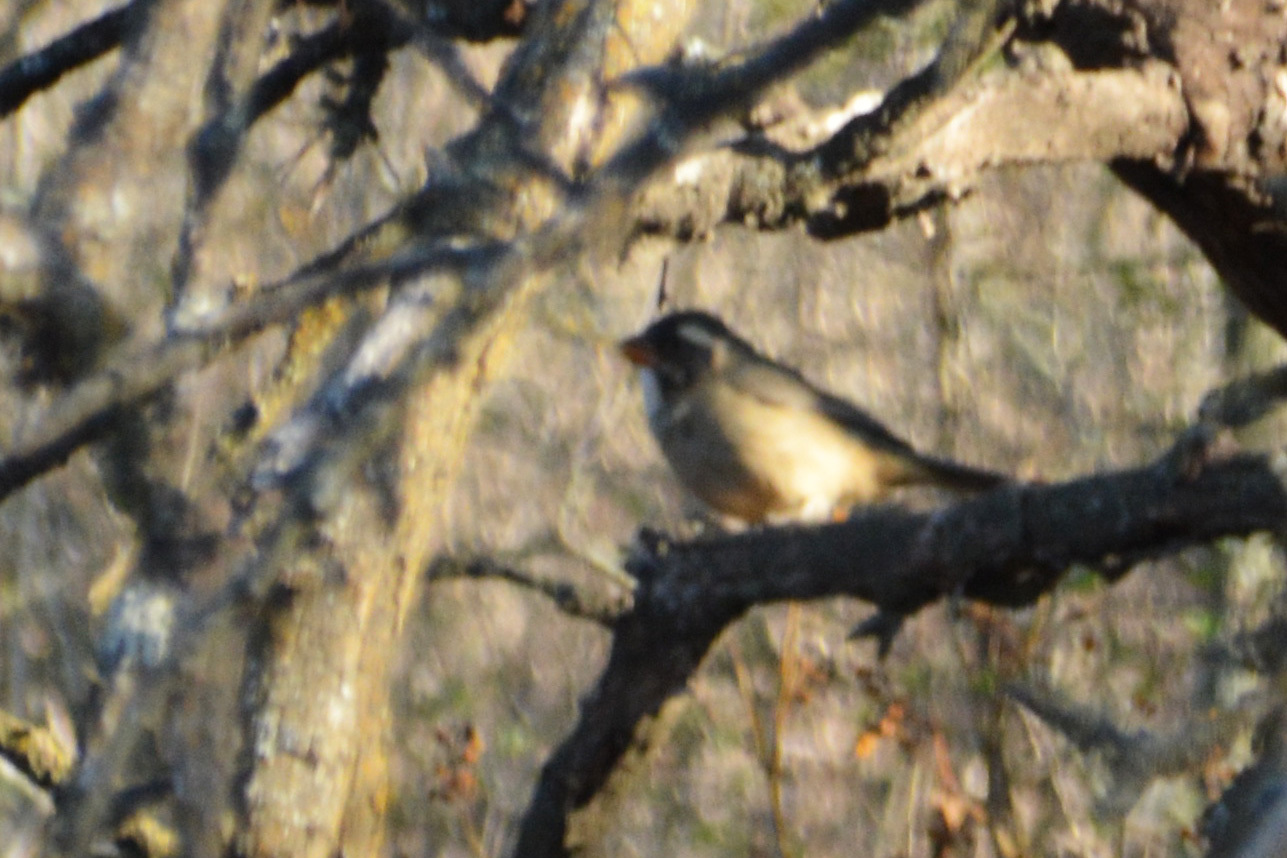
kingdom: Animalia
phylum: Chordata
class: Aves
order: Passeriformes
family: Thraupidae
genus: Saltator
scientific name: Saltator aurantiirostris
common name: Golden-billed saltator
